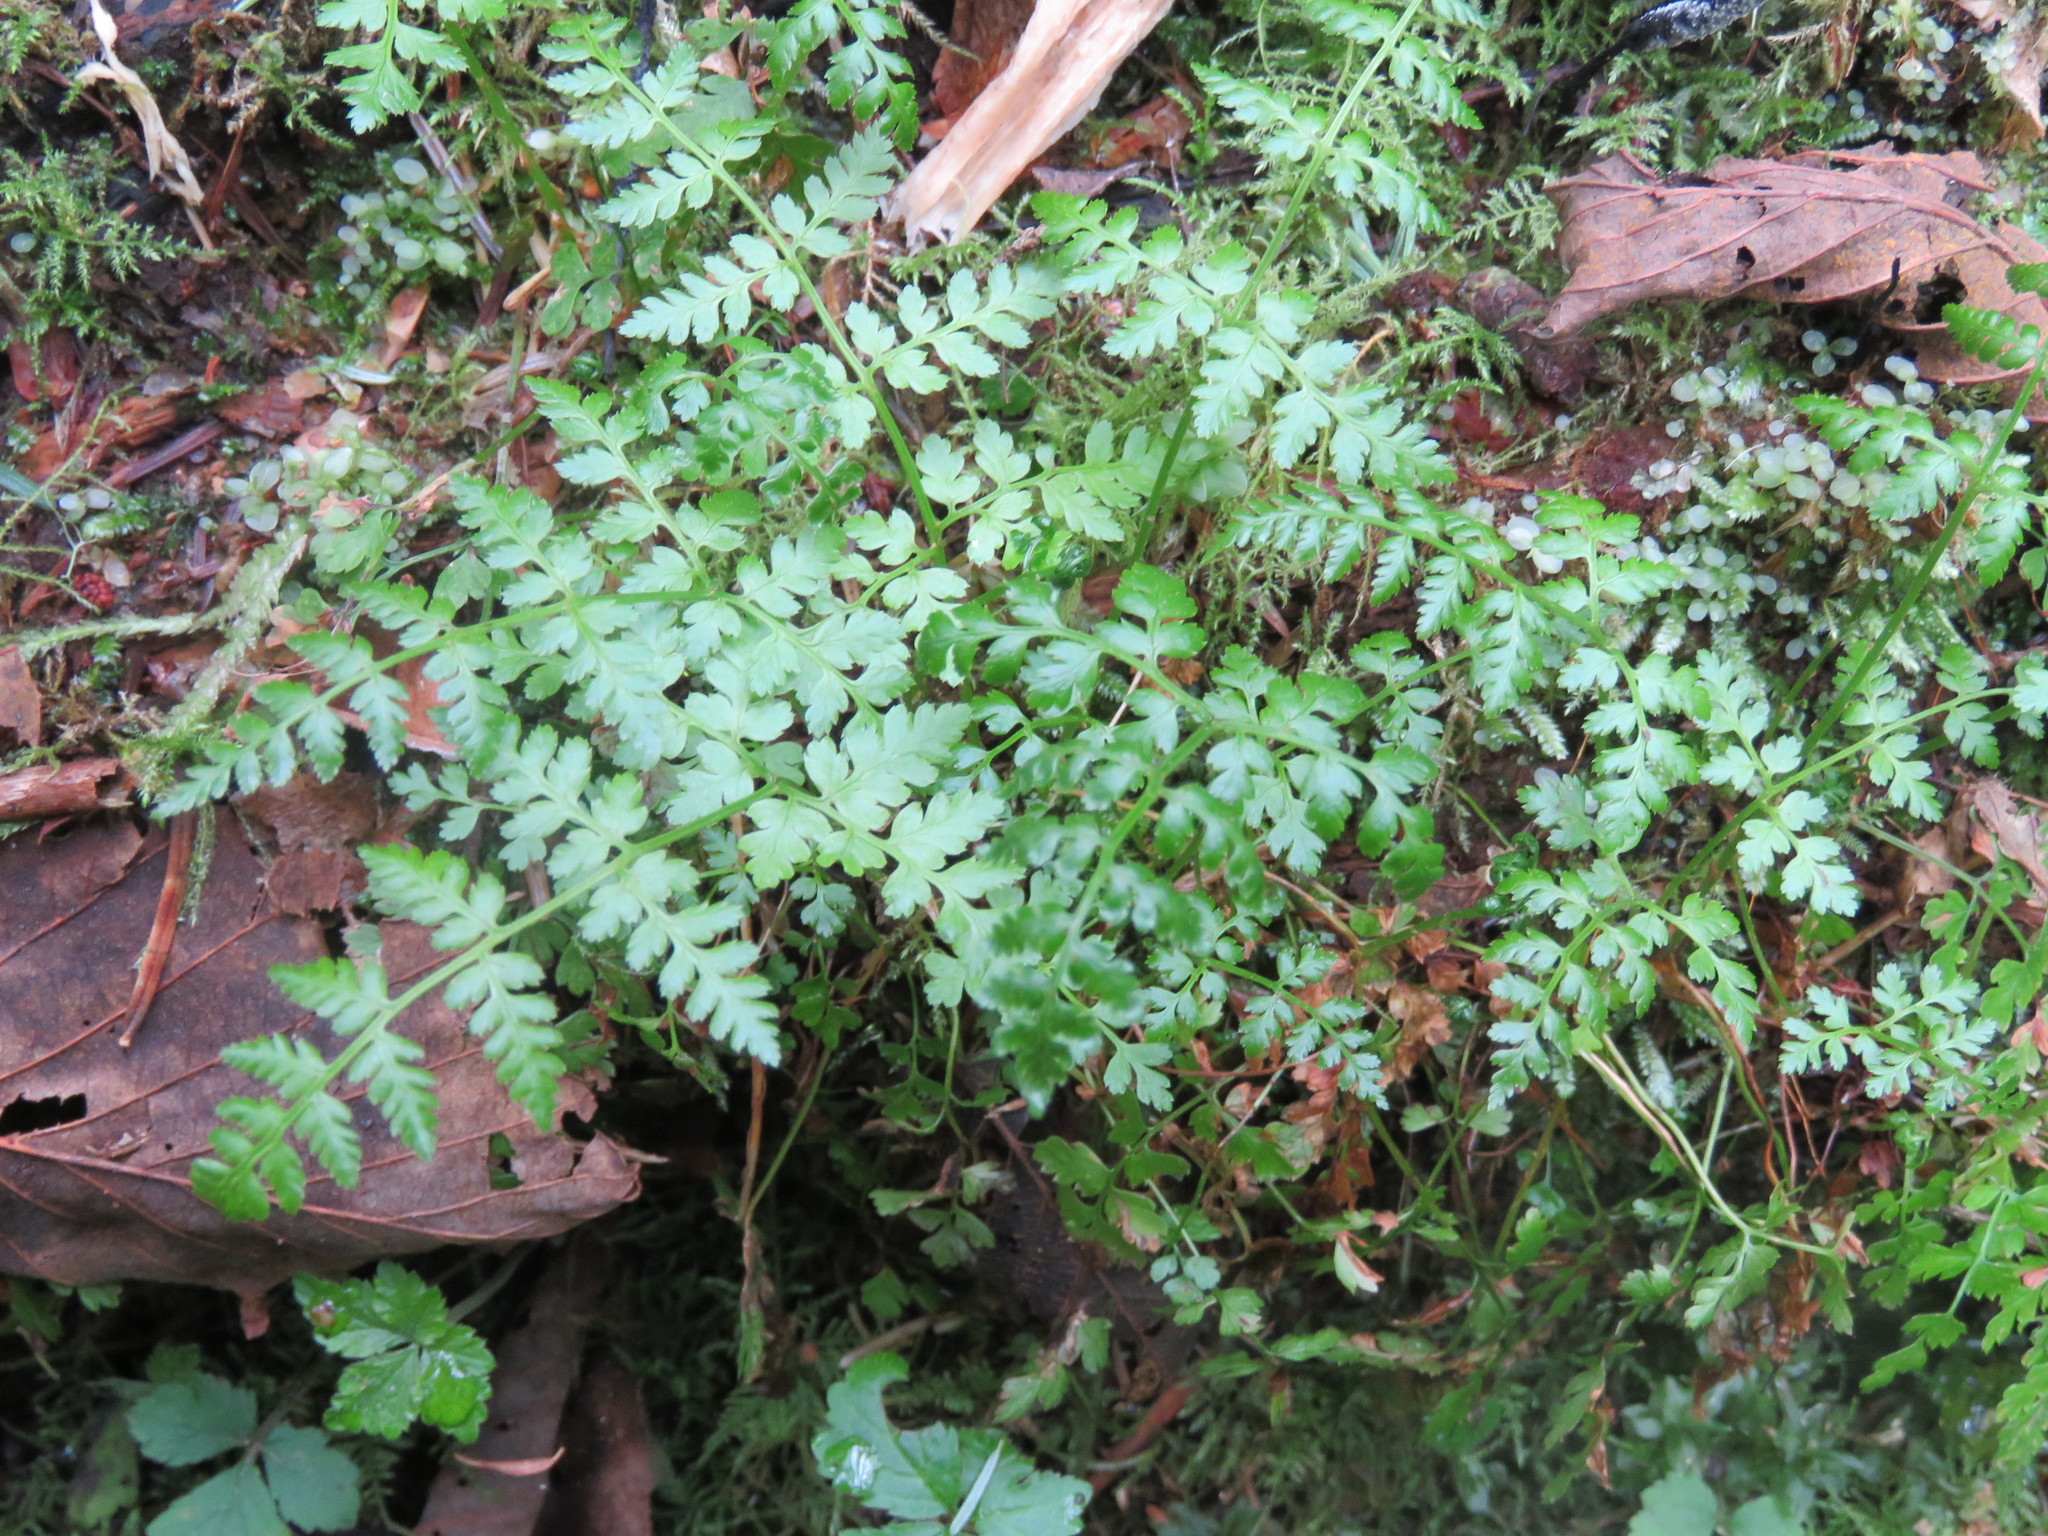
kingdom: Plantae
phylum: Tracheophyta
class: Polypodiopsida
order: Polypodiales
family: Dryopteridaceae
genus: Dryopteris
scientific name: Dryopteris expansa
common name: Northern buckler fern
